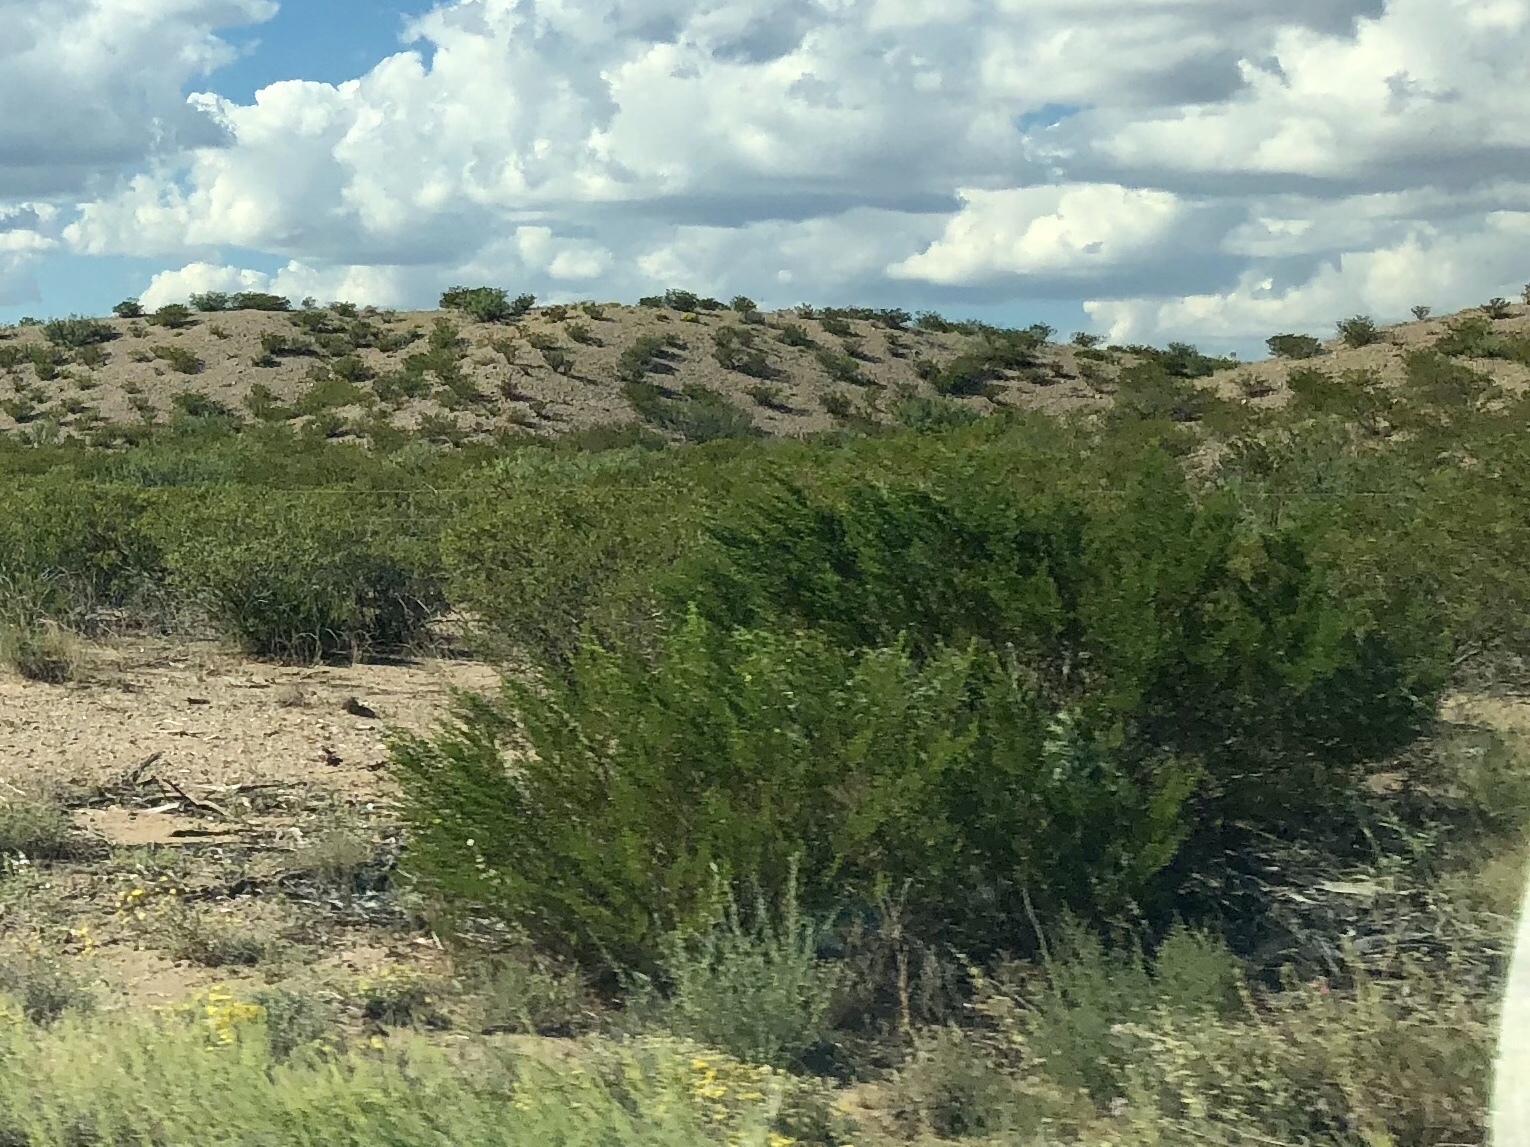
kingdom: Plantae
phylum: Tracheophyta
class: Magnoliopsida
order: Zygophyllales
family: Zygophyllaceae
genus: Larrea
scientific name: Larrea tridentata
